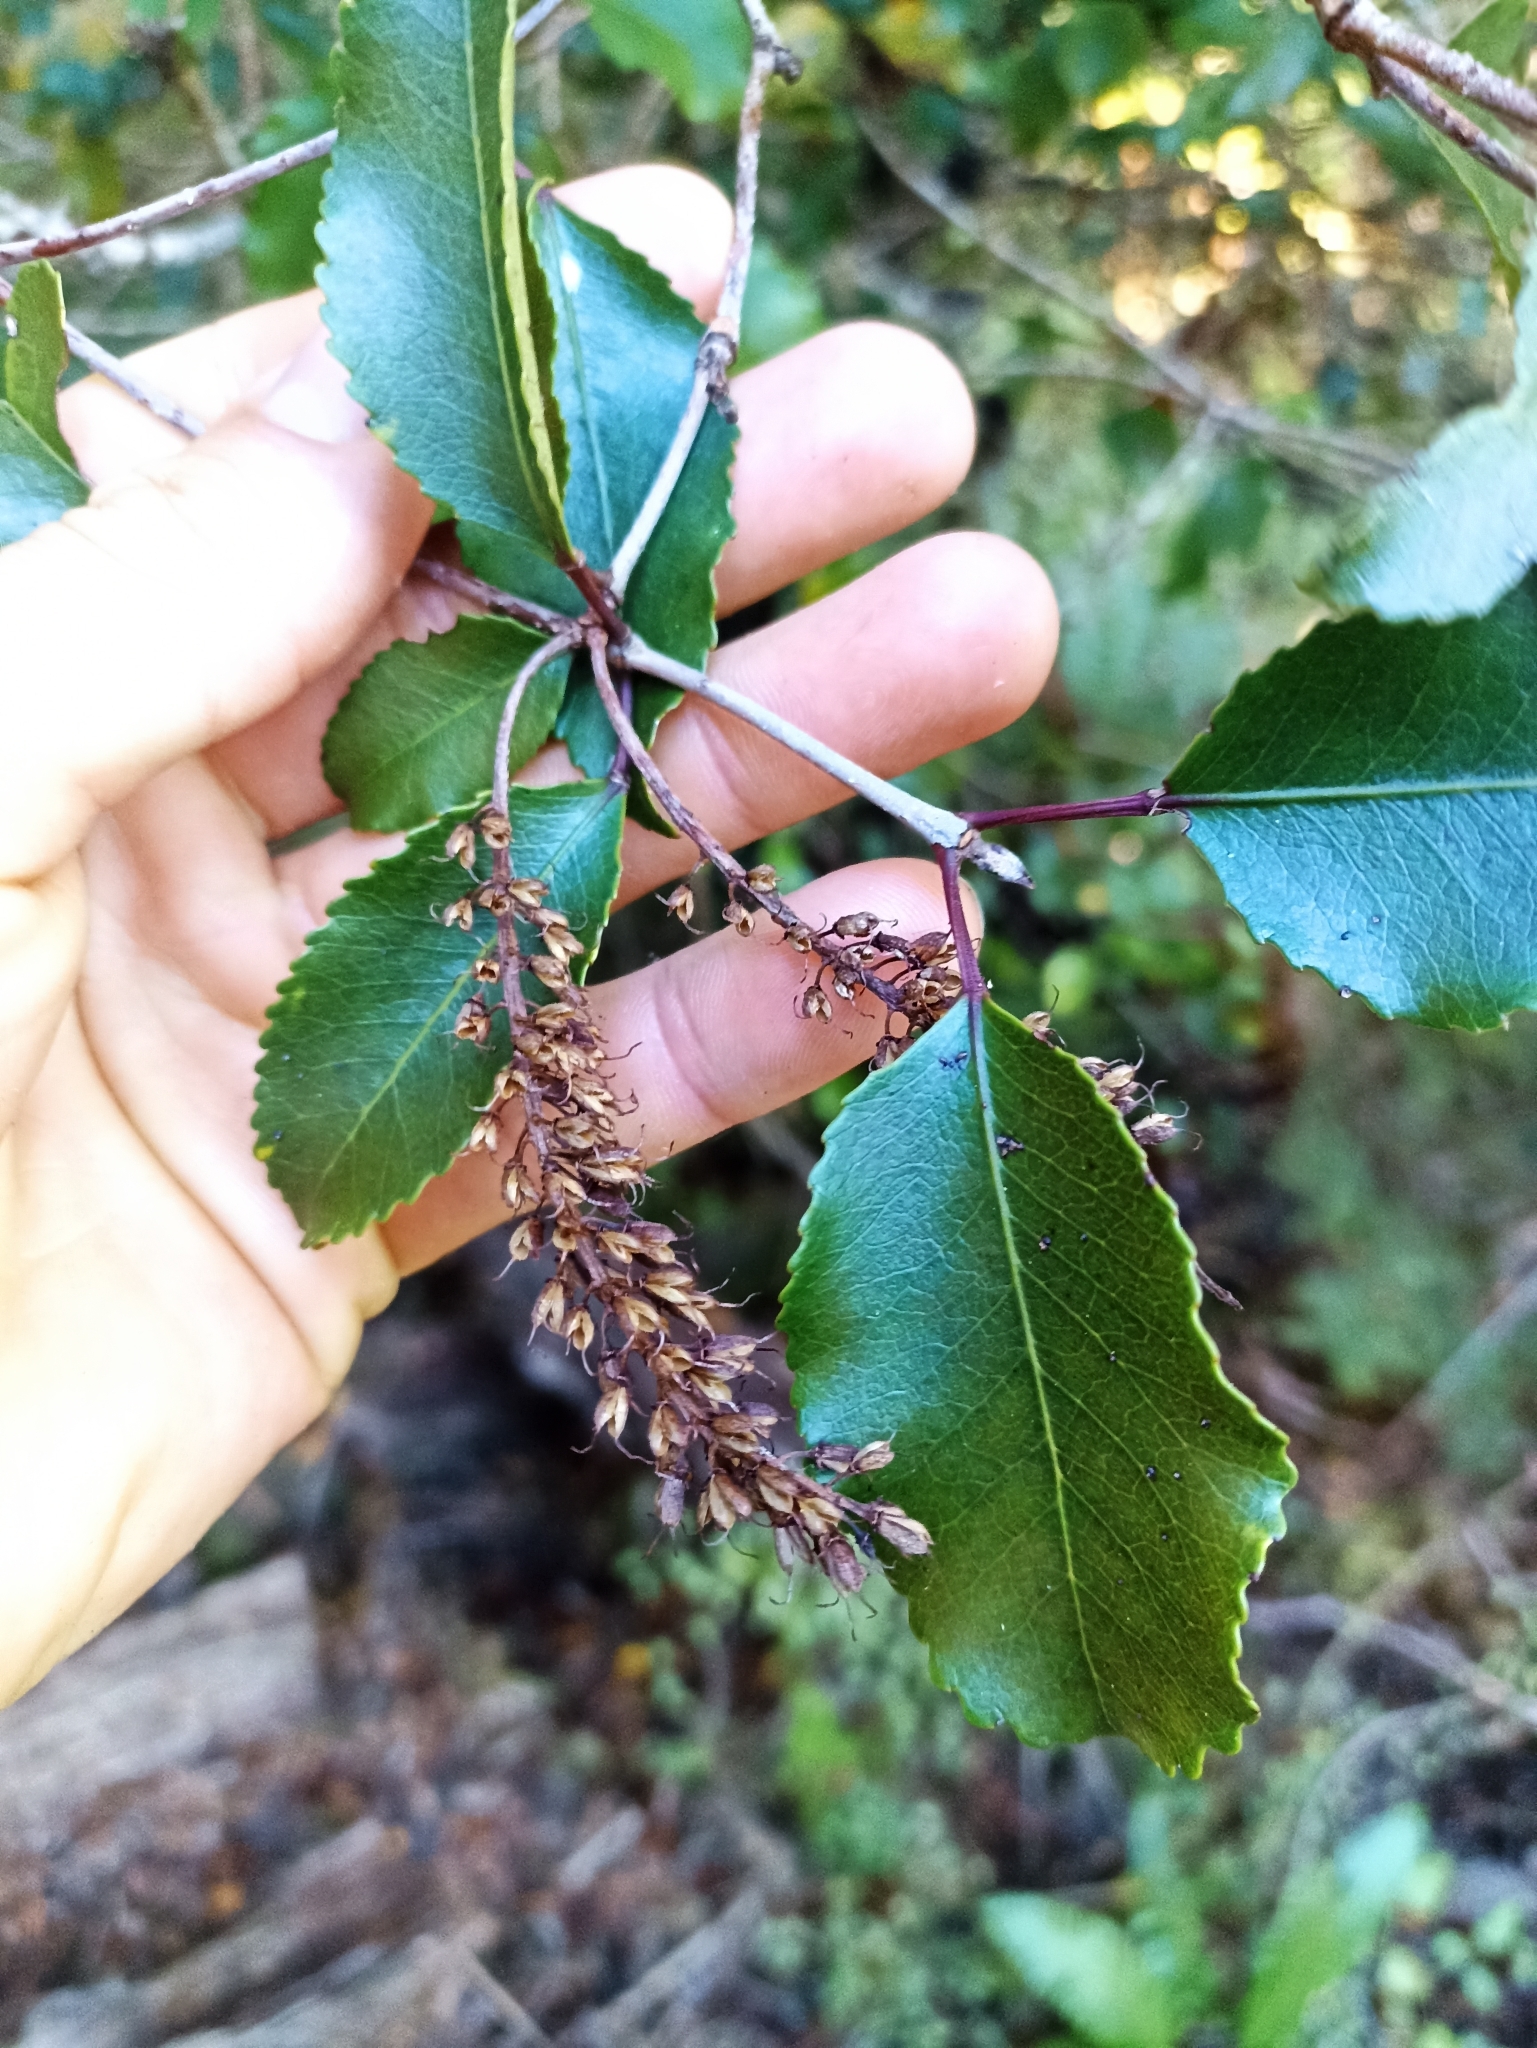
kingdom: Plantae
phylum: Tracheophyta
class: Magnoliopsida
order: Oxalidales
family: Cunoniaceae
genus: Pterophylla
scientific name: Pterophylla racemosa
